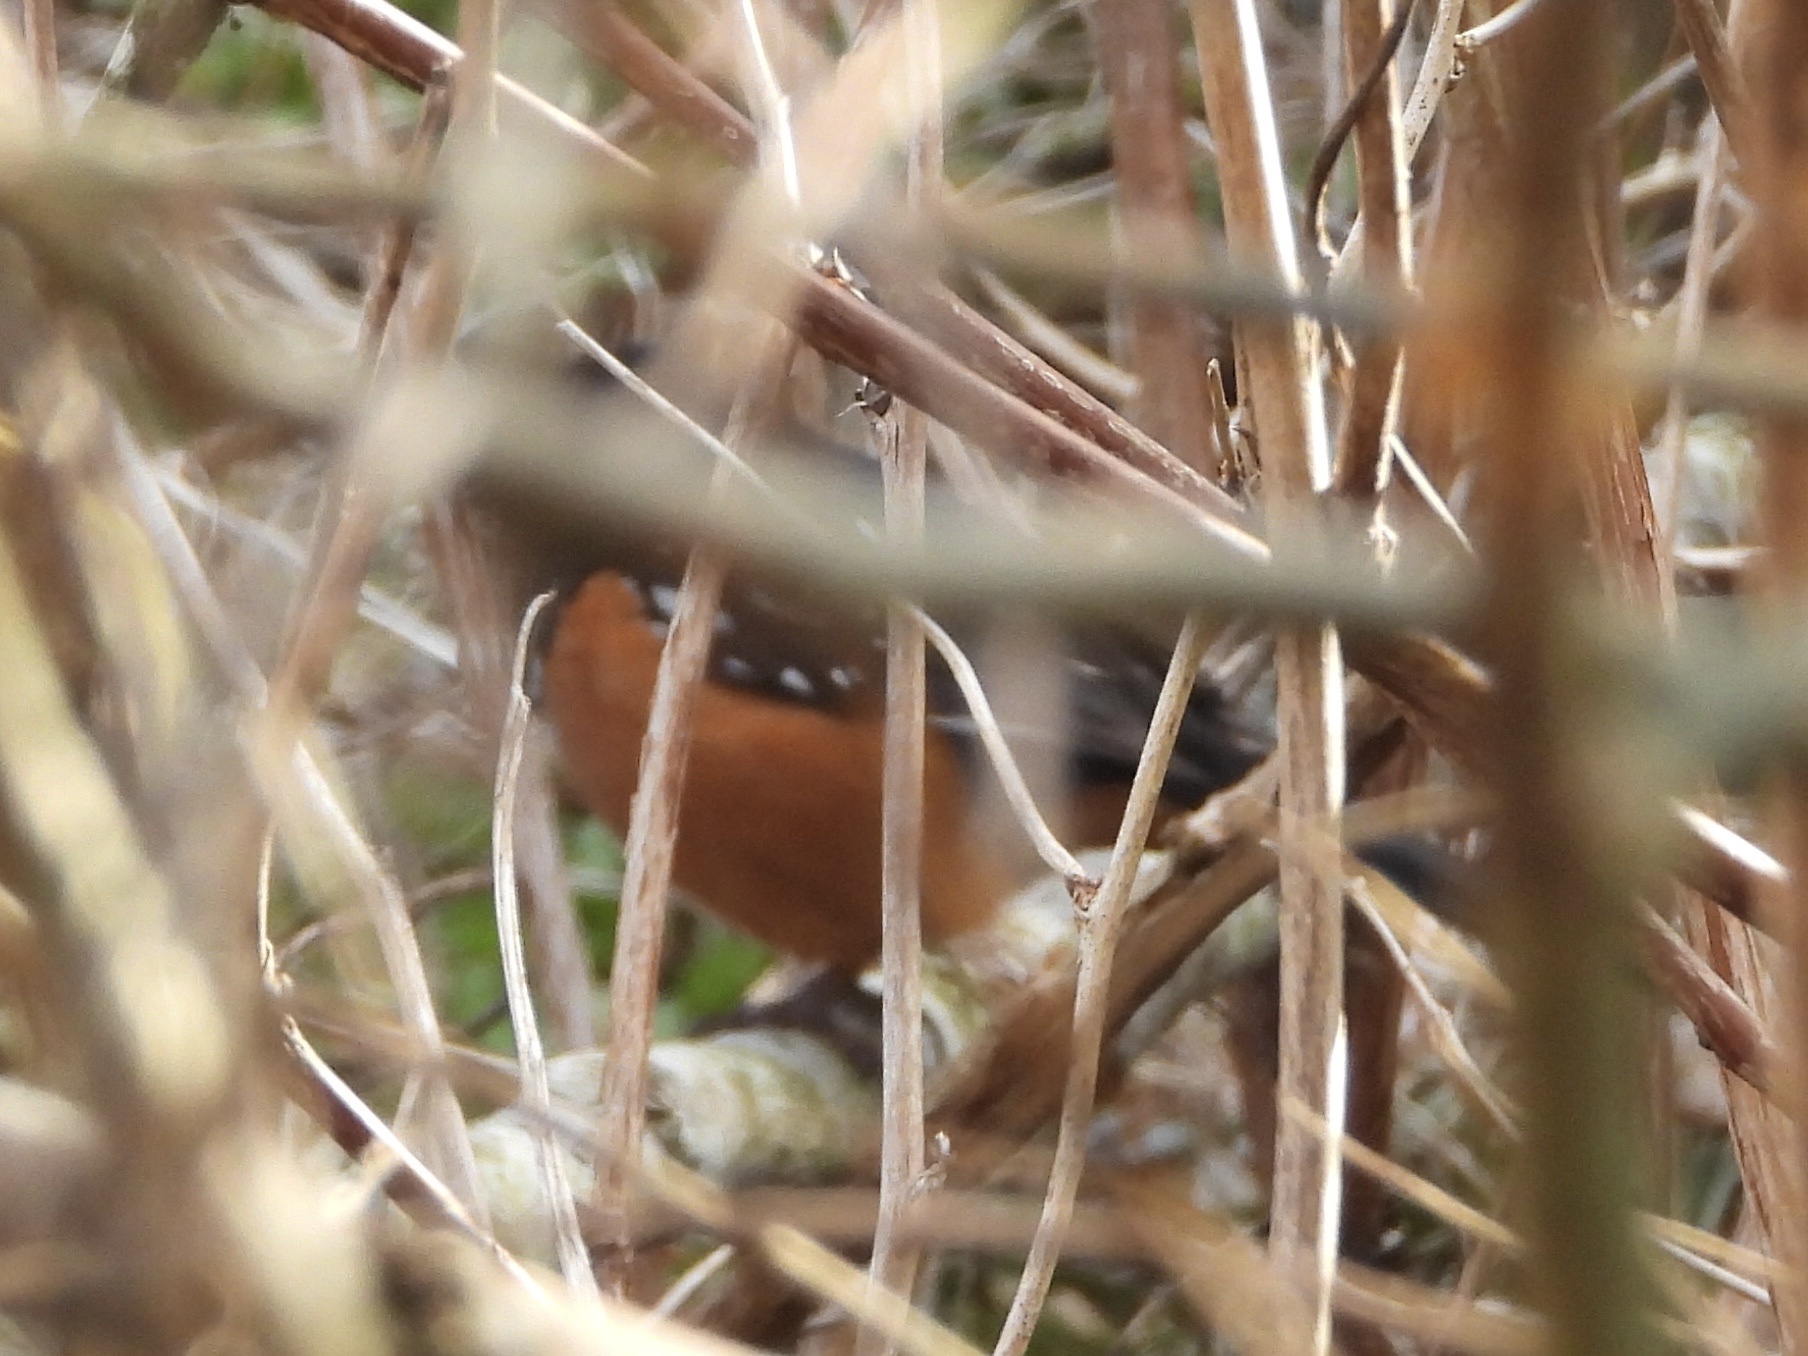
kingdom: Animalia
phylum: Chordata
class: Aves
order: Passeriformes
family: Passerellidae
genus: Pipilo
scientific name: Pipilo maculatus
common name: Spotted towhee
